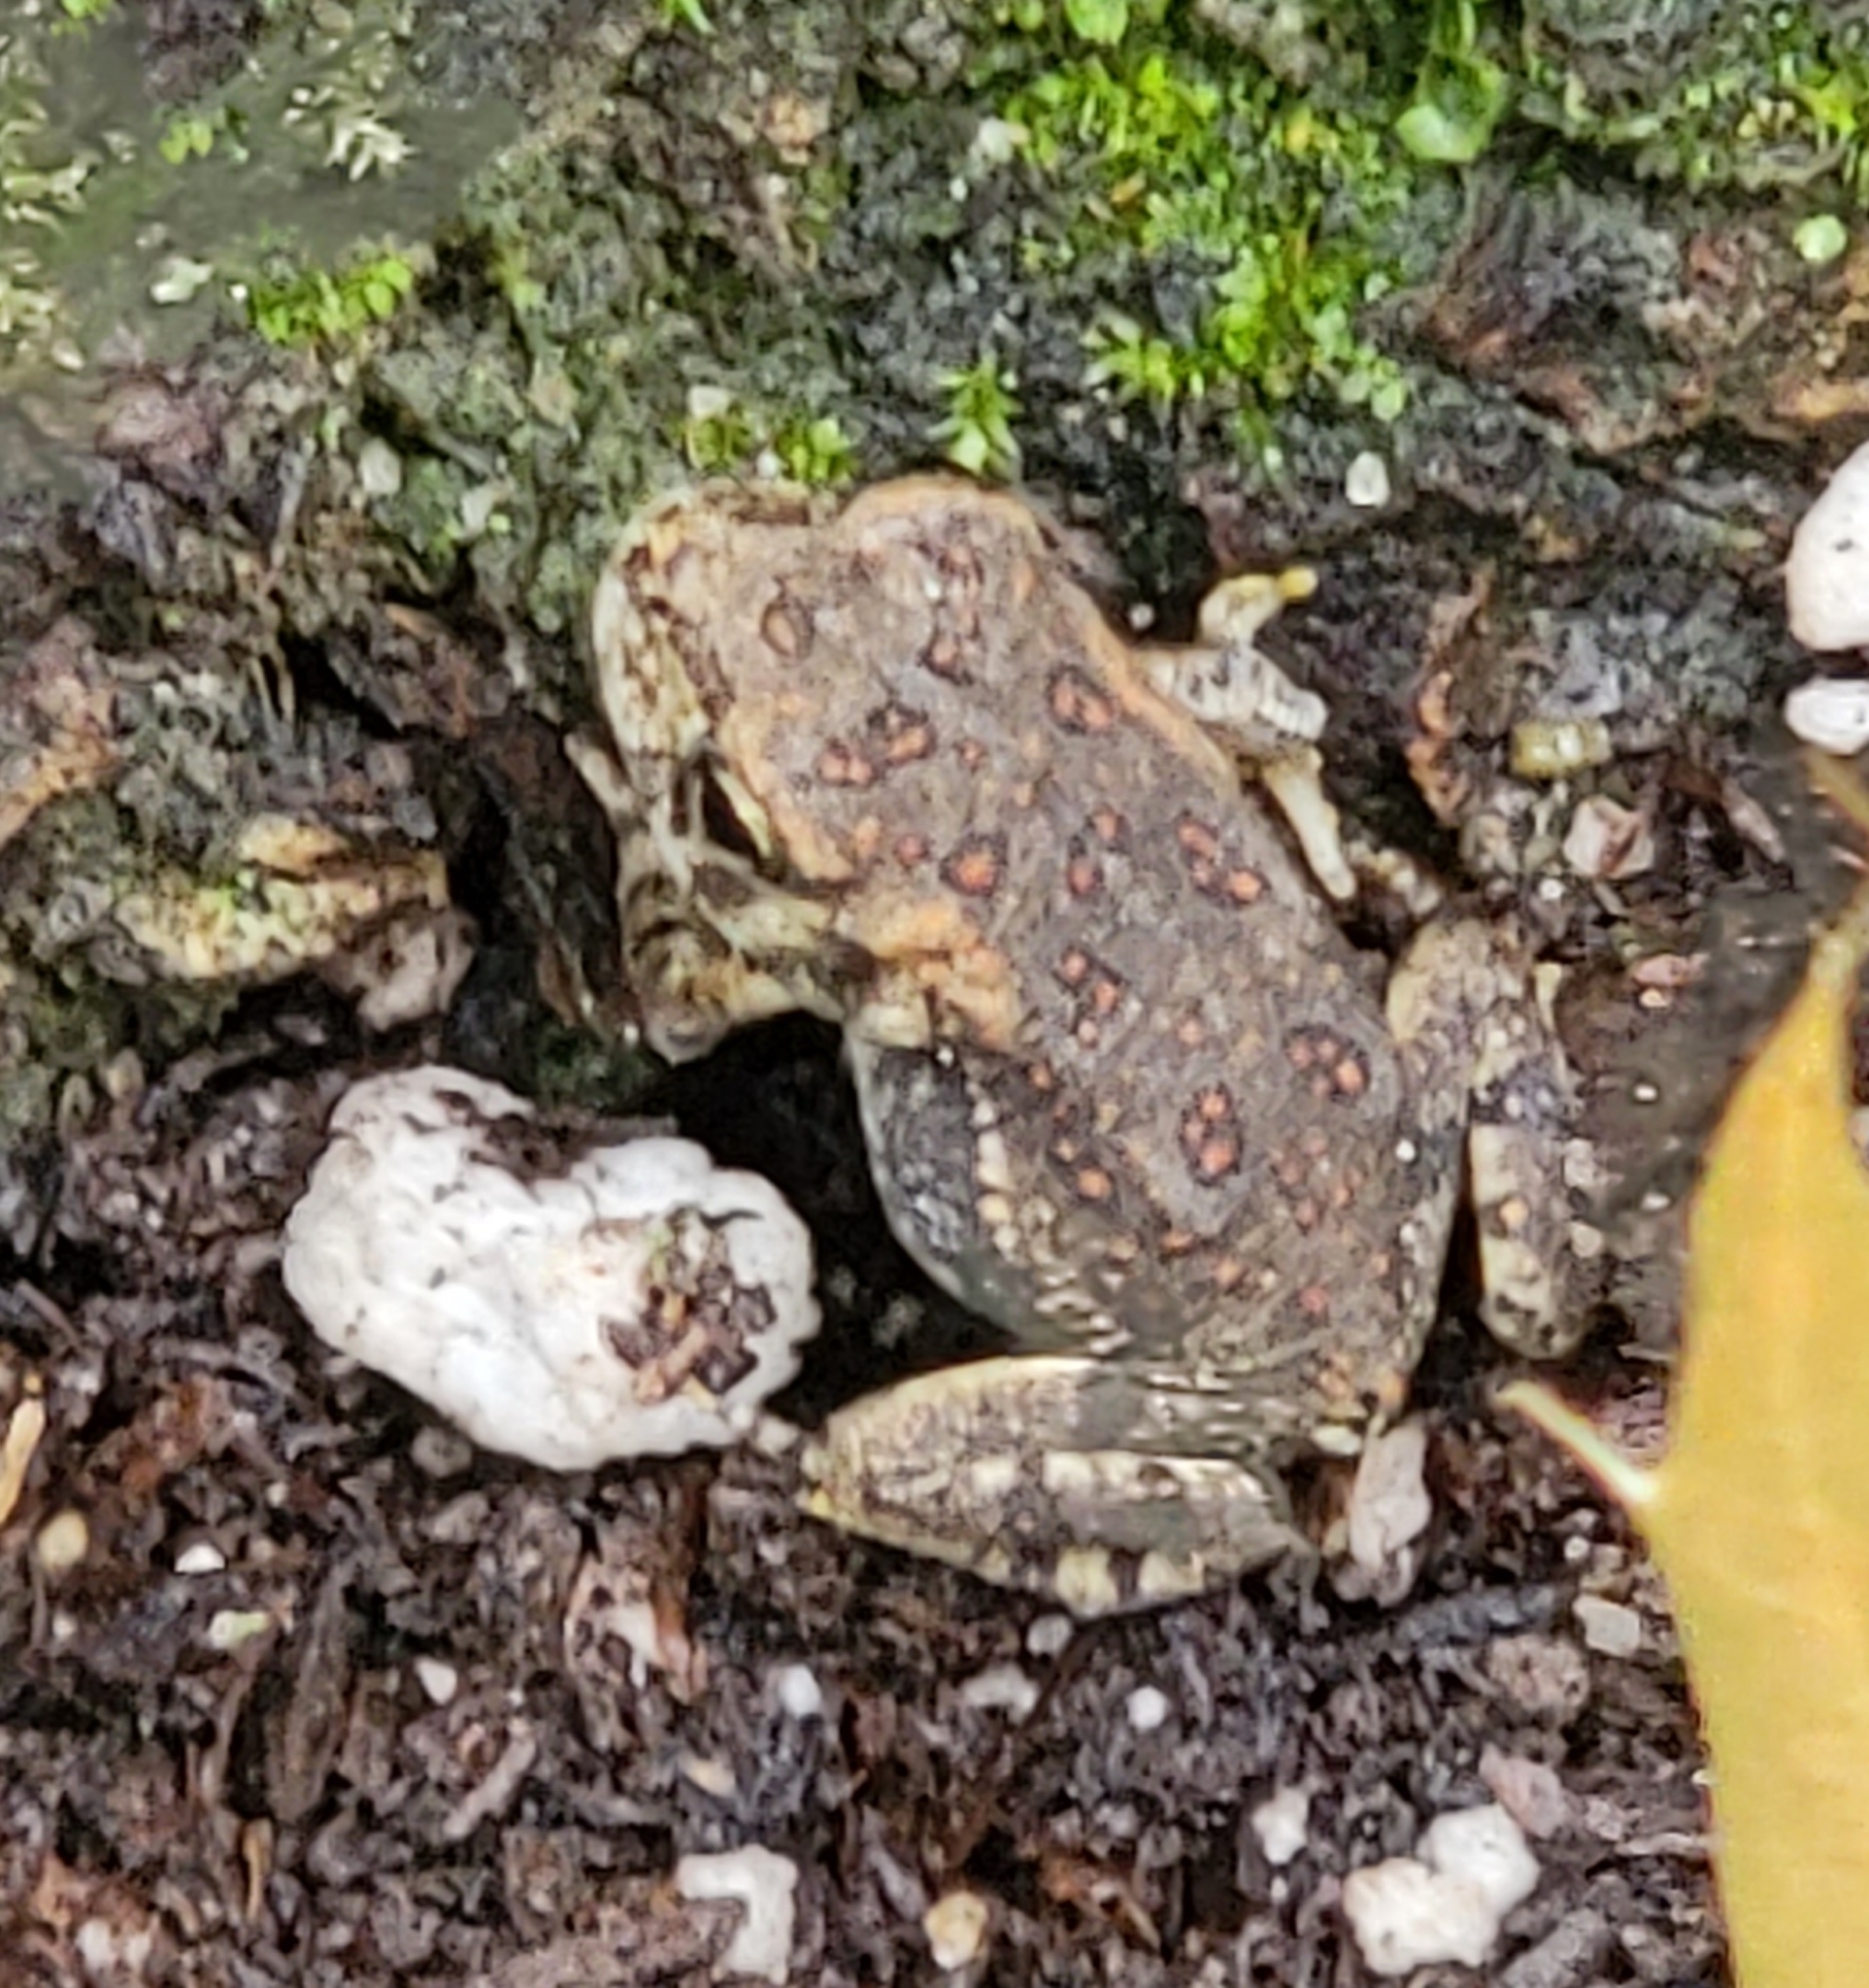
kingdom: Animalia
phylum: Chordata
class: Amphibia
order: Anura
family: Bufonidae
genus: Anaxyrus
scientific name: Anaxyrus fowleri
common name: Fowler's toad
